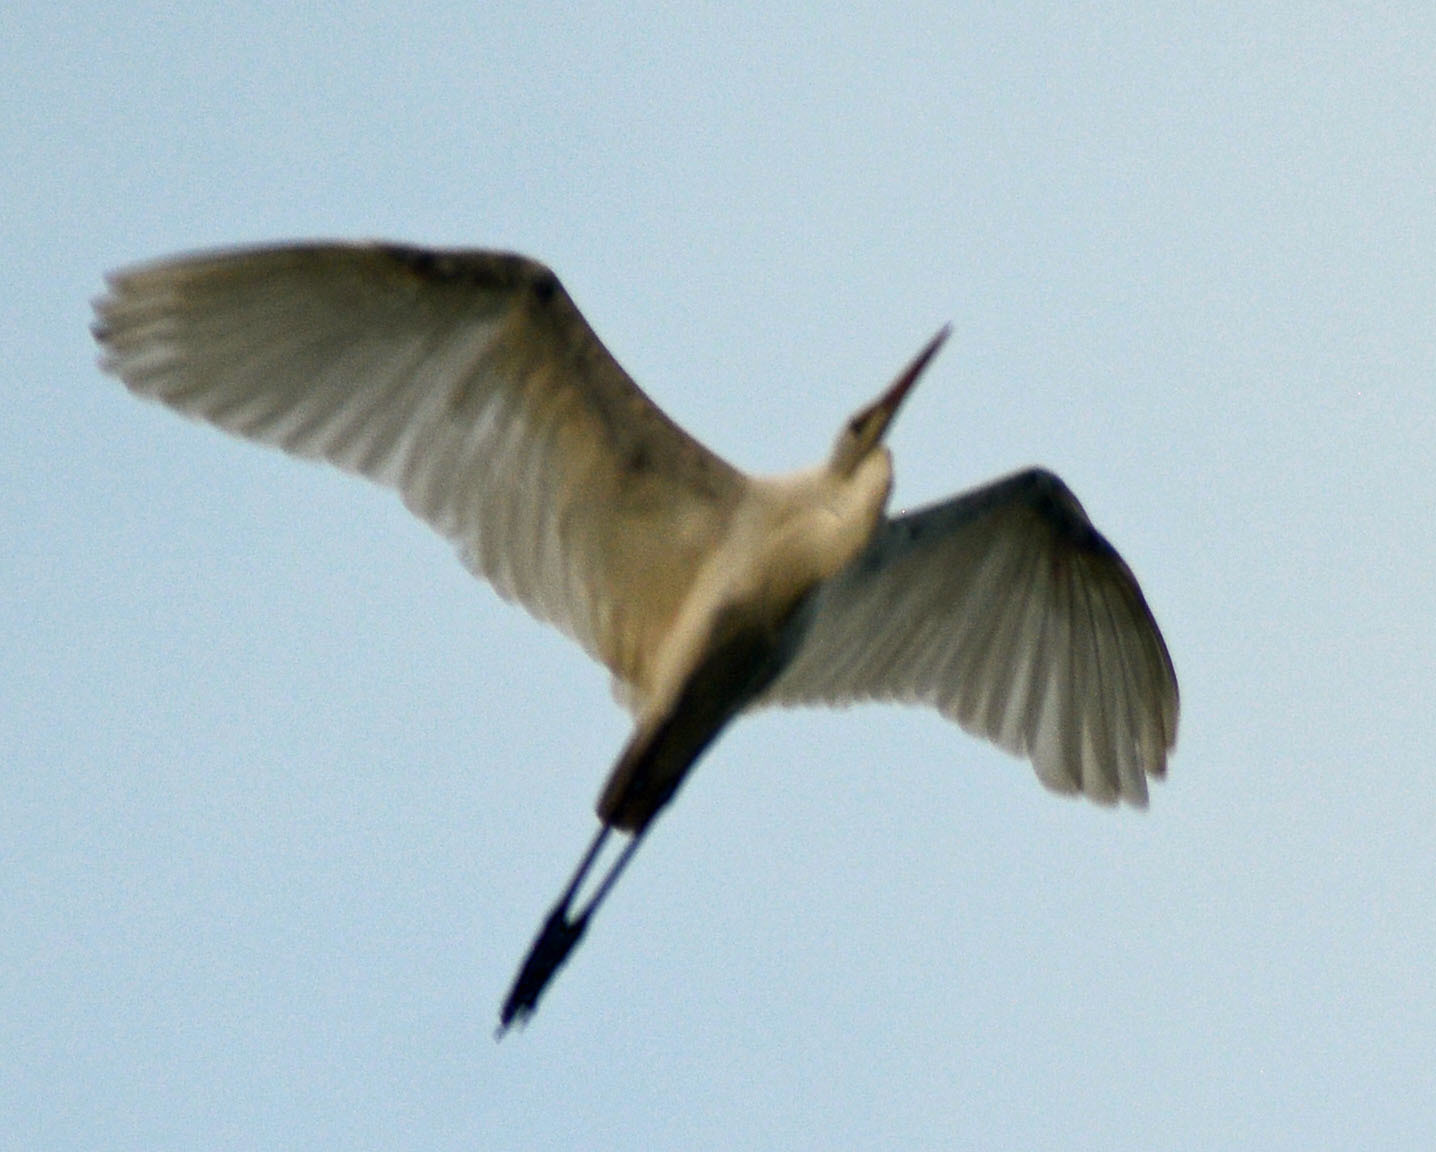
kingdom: Animalia
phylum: Chordata
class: Aves
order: Pelecaniformes
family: Ardeidae
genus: Ardea
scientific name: Ardea alba
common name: Great egret
